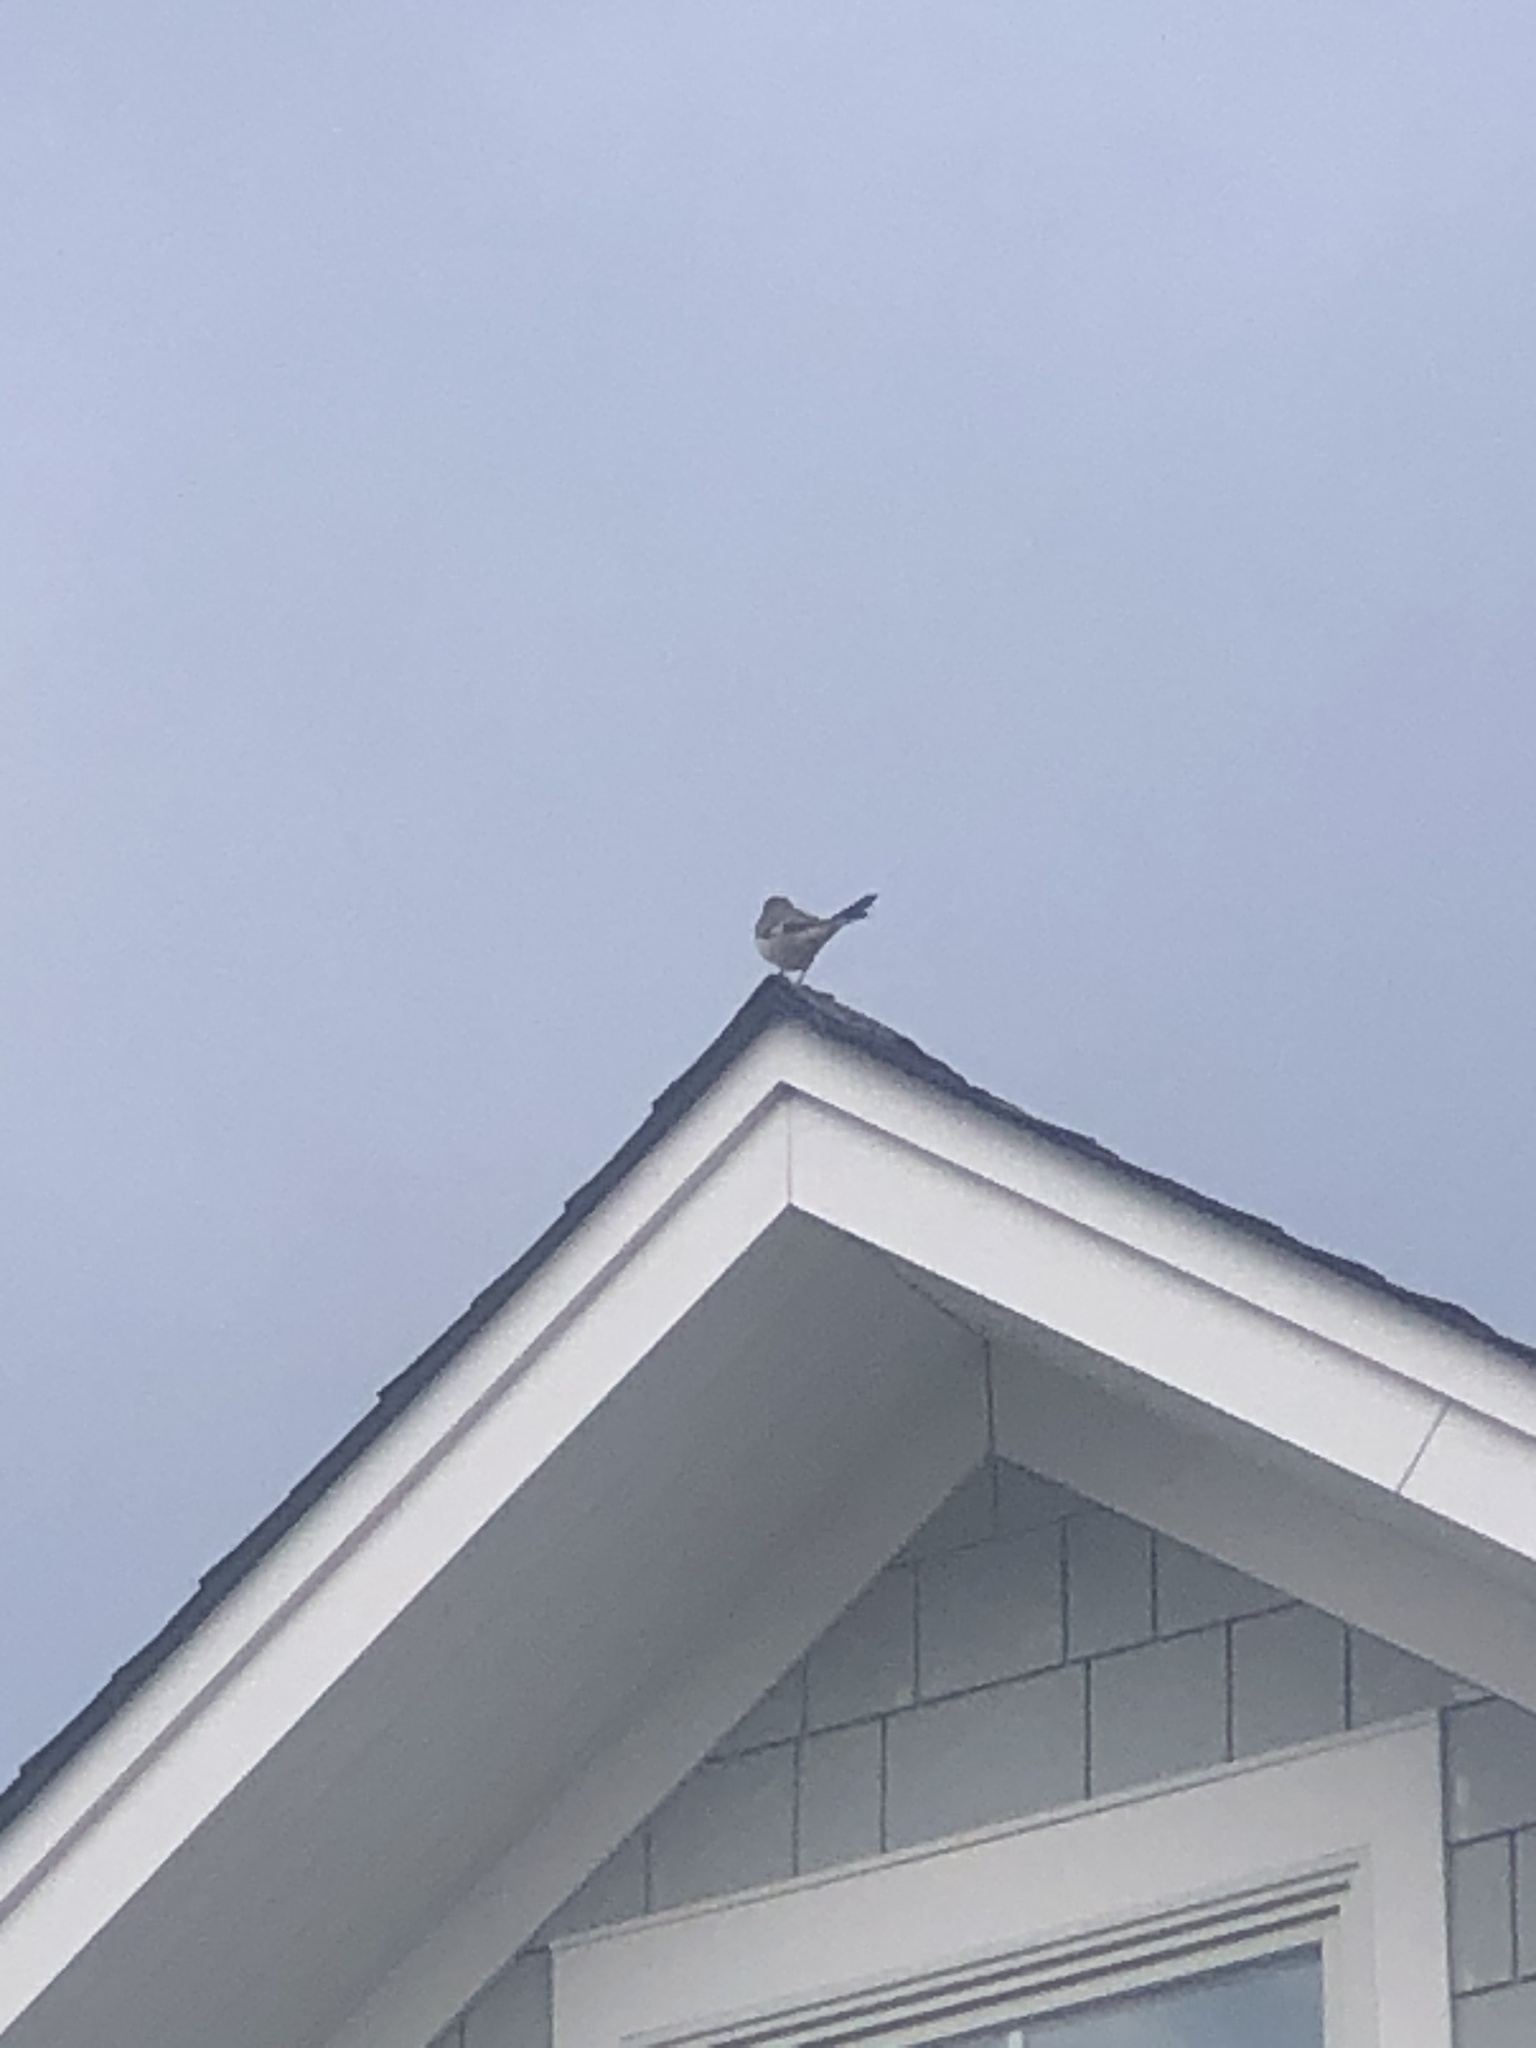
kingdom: Animalia
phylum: Chordata
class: Aves
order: Passeriformes
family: Mimidae
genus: Mimus
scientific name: Mimus polyglottos
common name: Northern mockingbird
